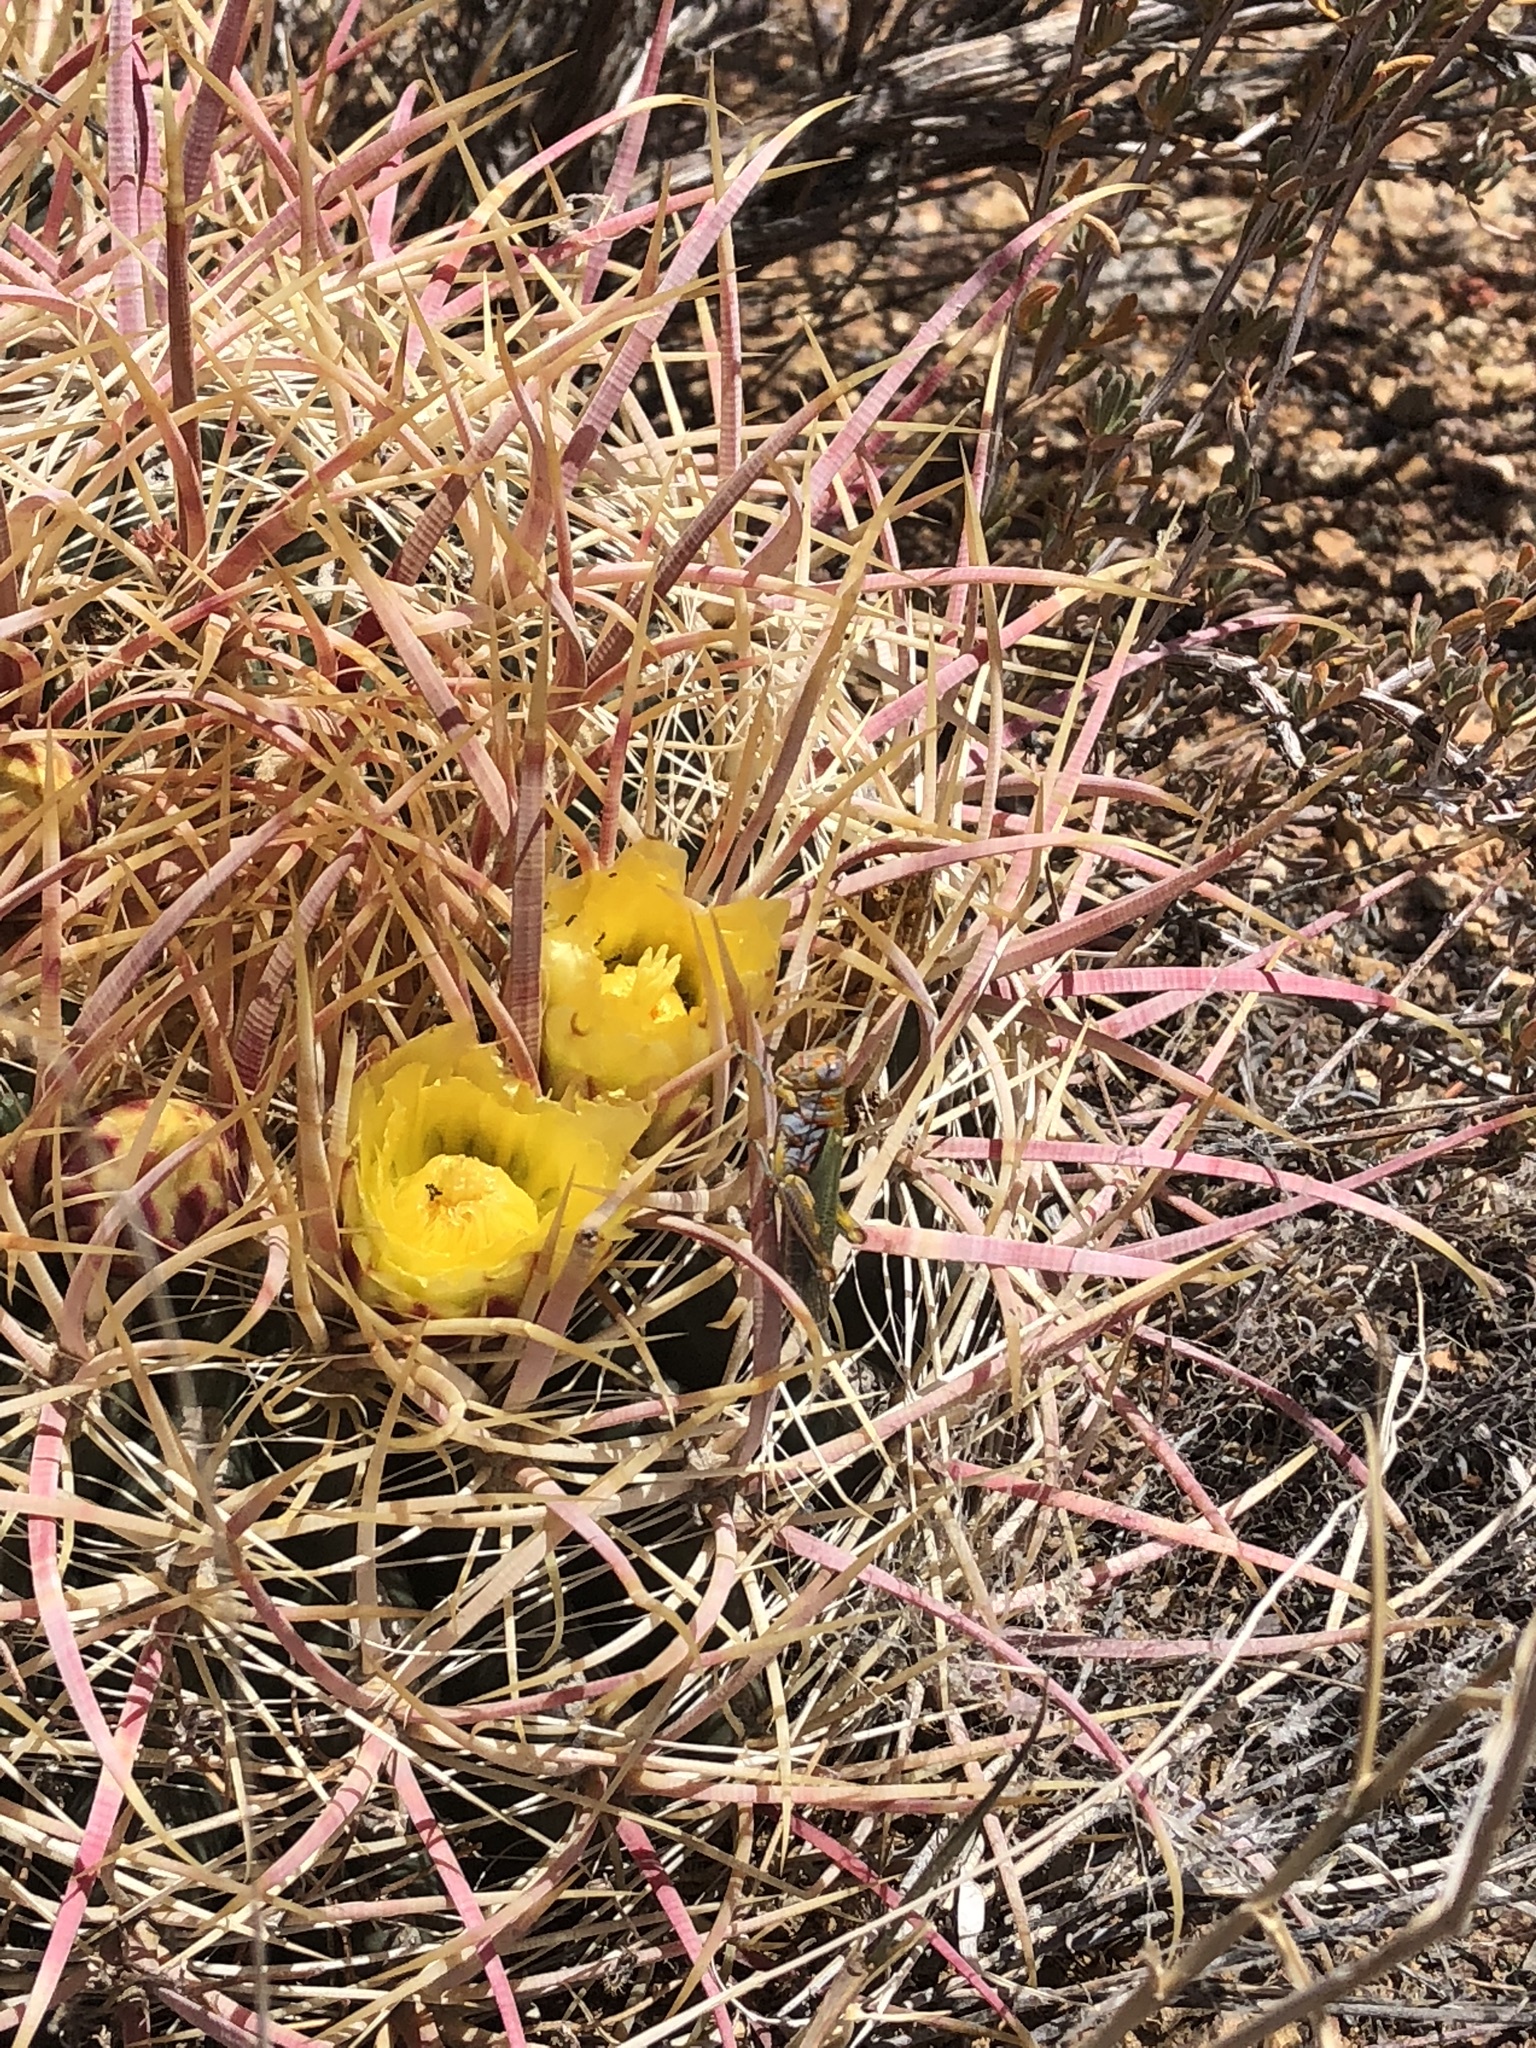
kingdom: Animalia
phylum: Arthropoda
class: Insecta
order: Orthoptera
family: Acrididae
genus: Poecilotettix
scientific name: Poecilotettix sanguineus
